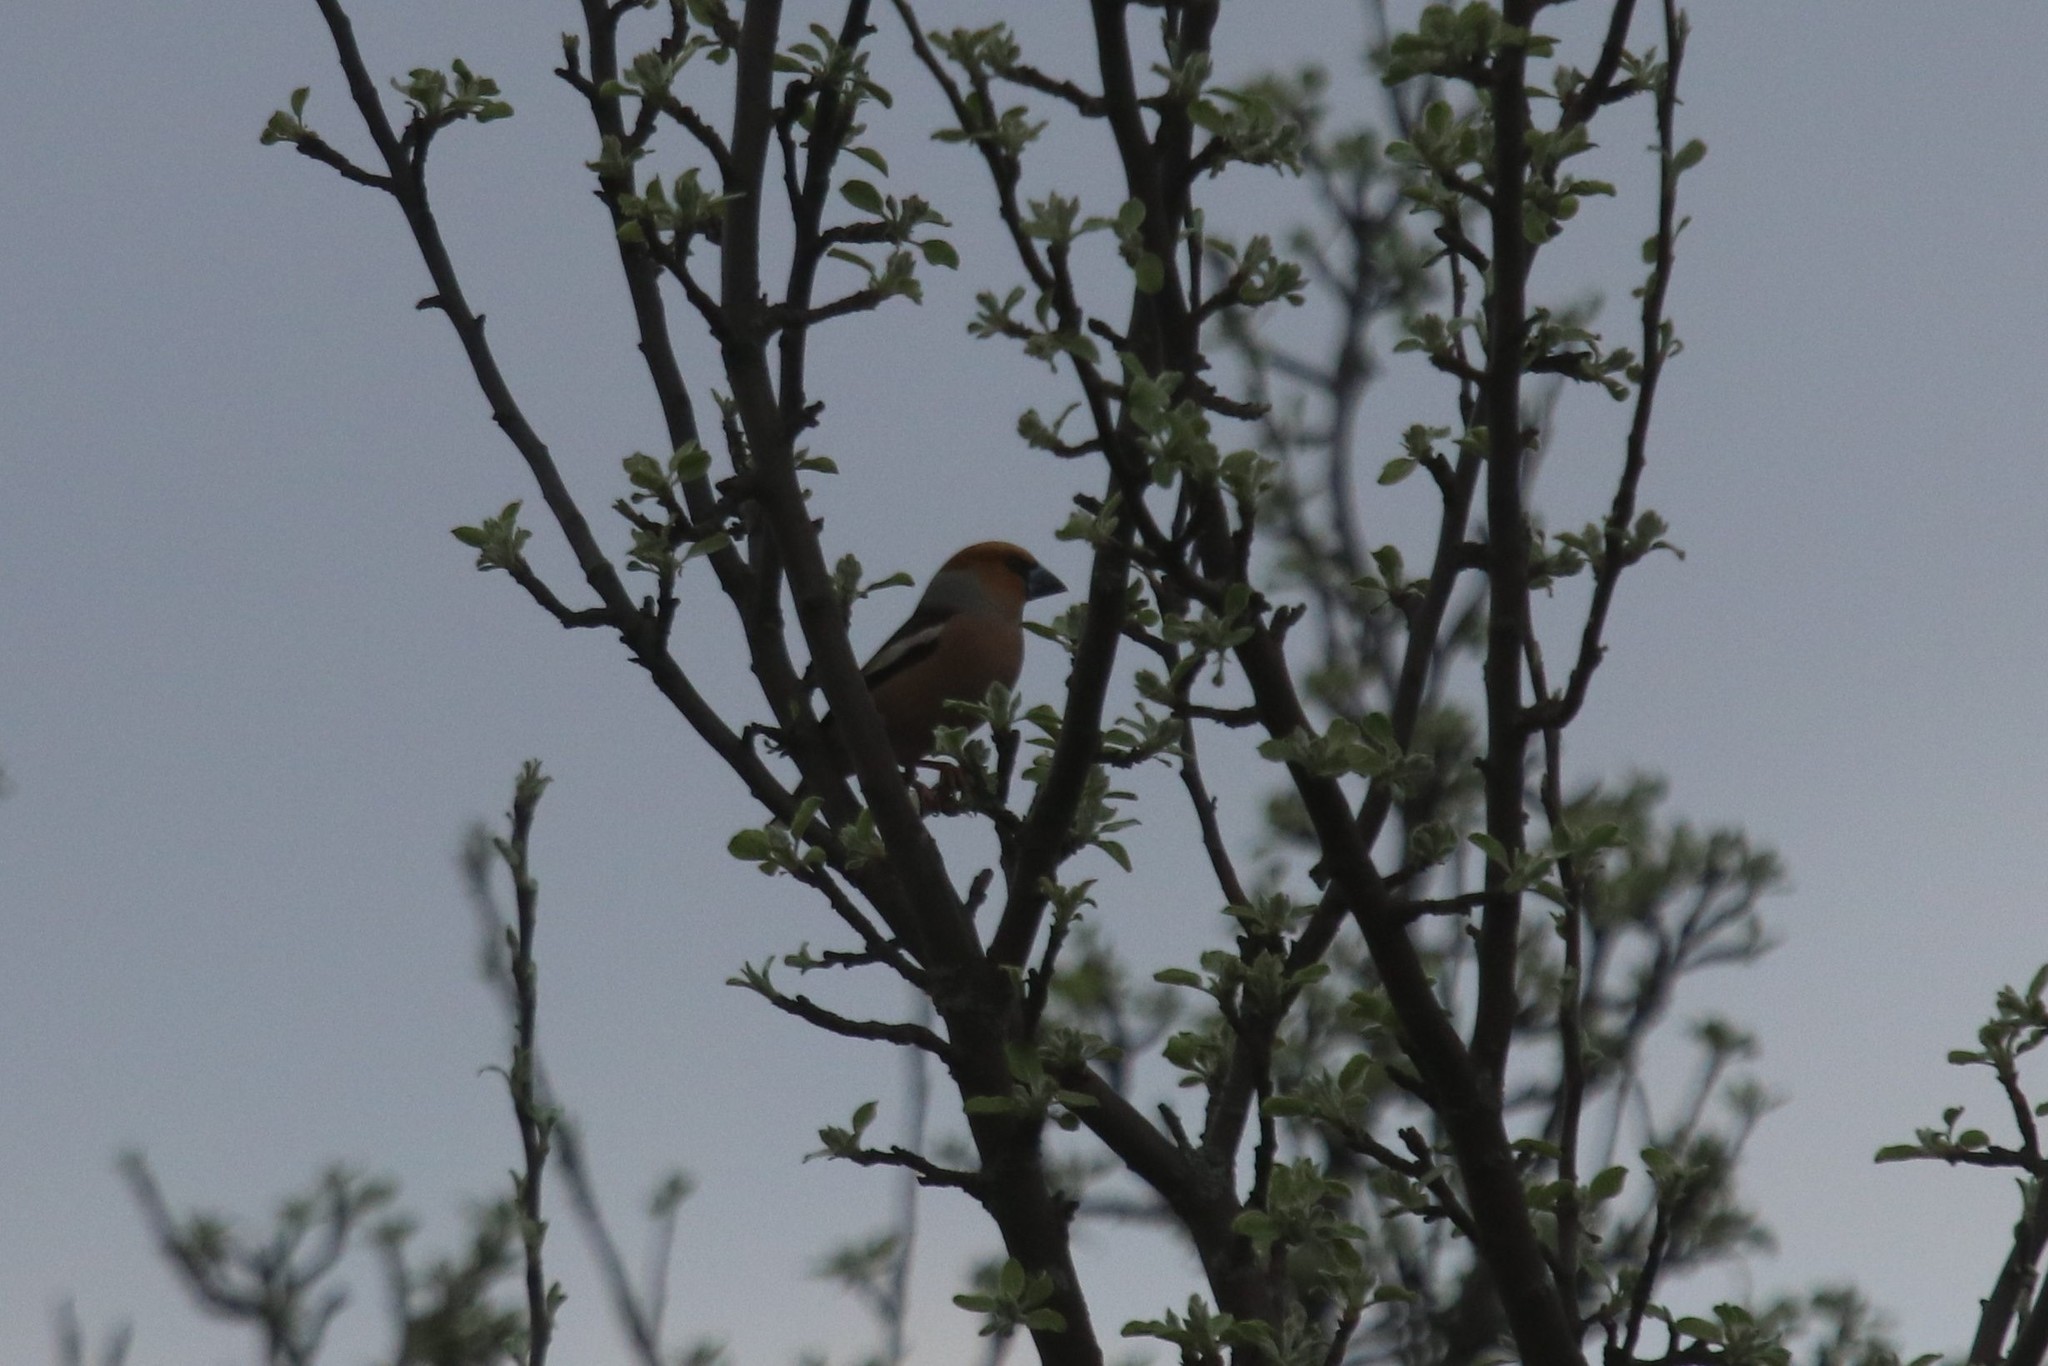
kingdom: Animalia
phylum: Chordata
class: Aves
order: Passeriformes
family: Fringillidae
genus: Coccothraustes
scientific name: Coccothraustes coccothraustes
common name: Hawfinch
